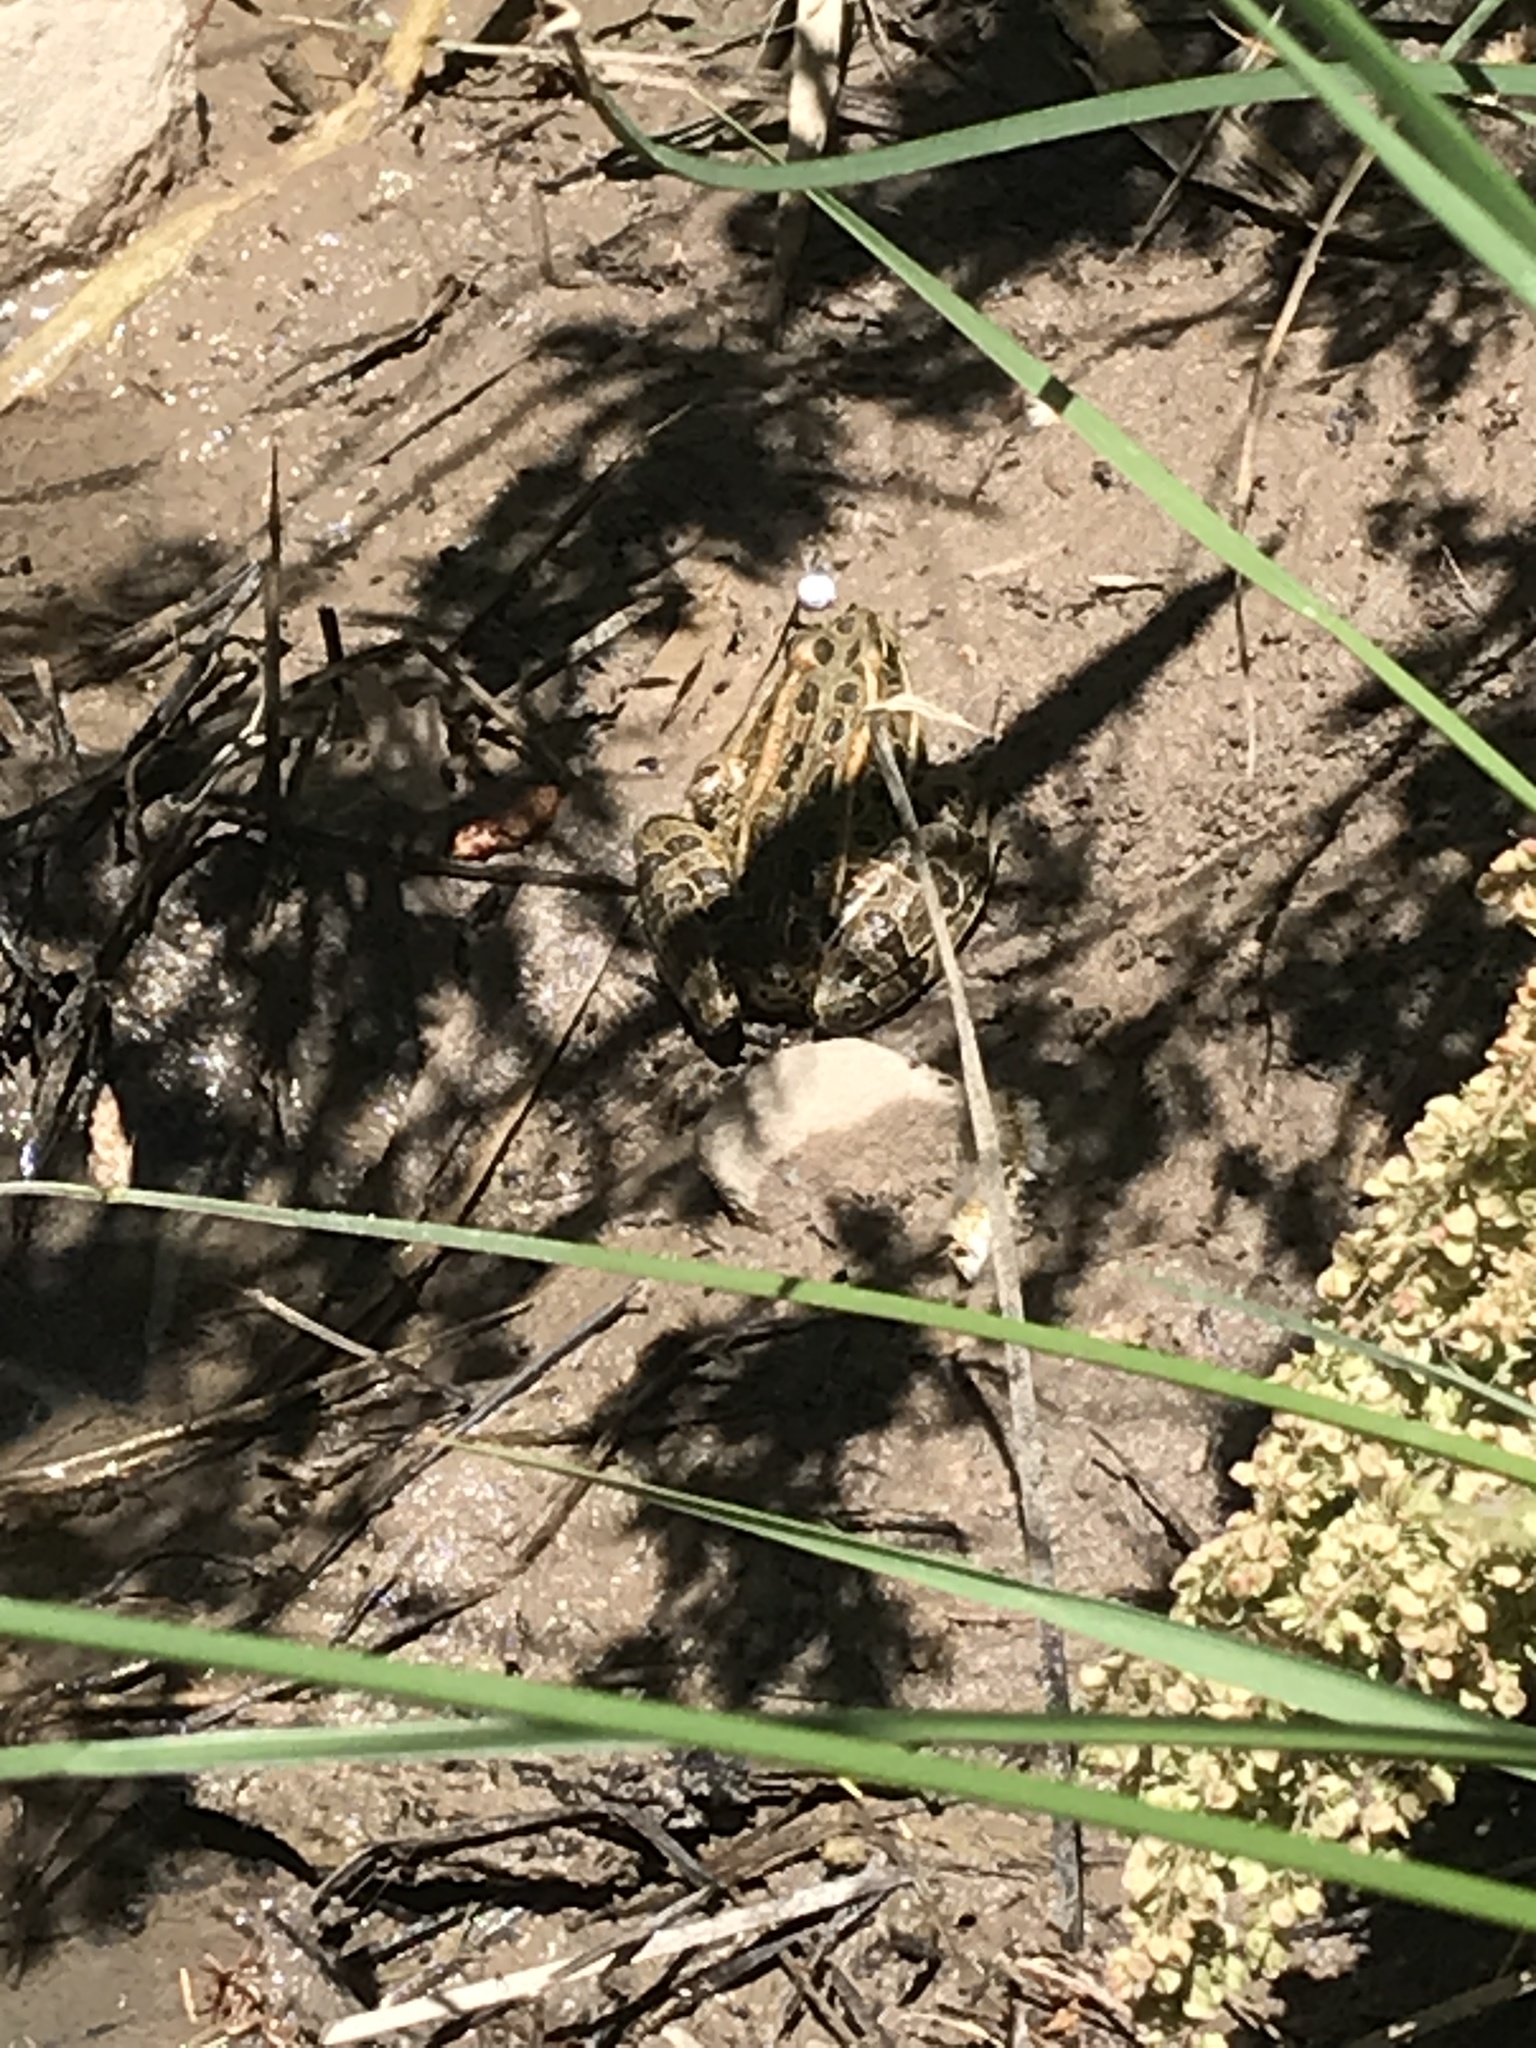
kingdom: Animalia
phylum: Chordata
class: Amphibia
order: Anura
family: Ranidae
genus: Lithobates
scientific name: Lithobates pipiens
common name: Northern leopard frog
